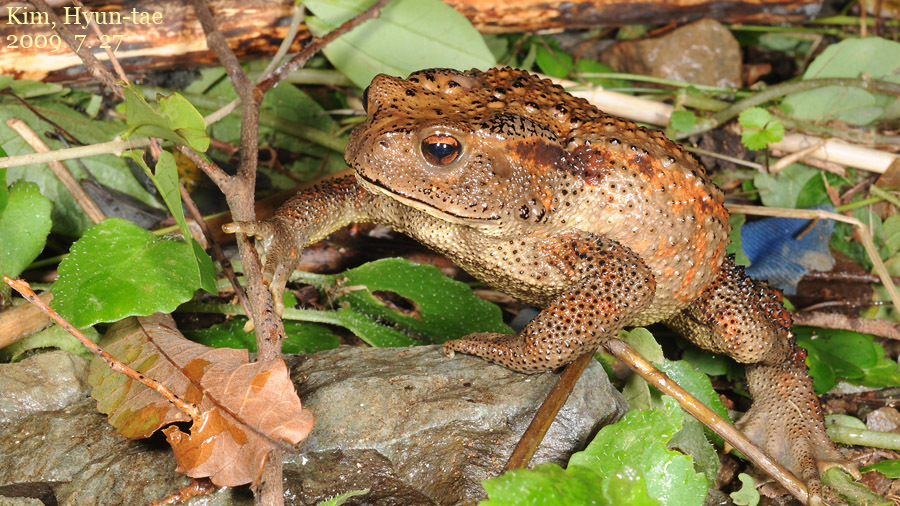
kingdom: Animalia
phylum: Chordata
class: Amphibia
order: Anura
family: Bufonidae
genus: Bufo
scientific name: Bufo gargarizans
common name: Asiatic toad
